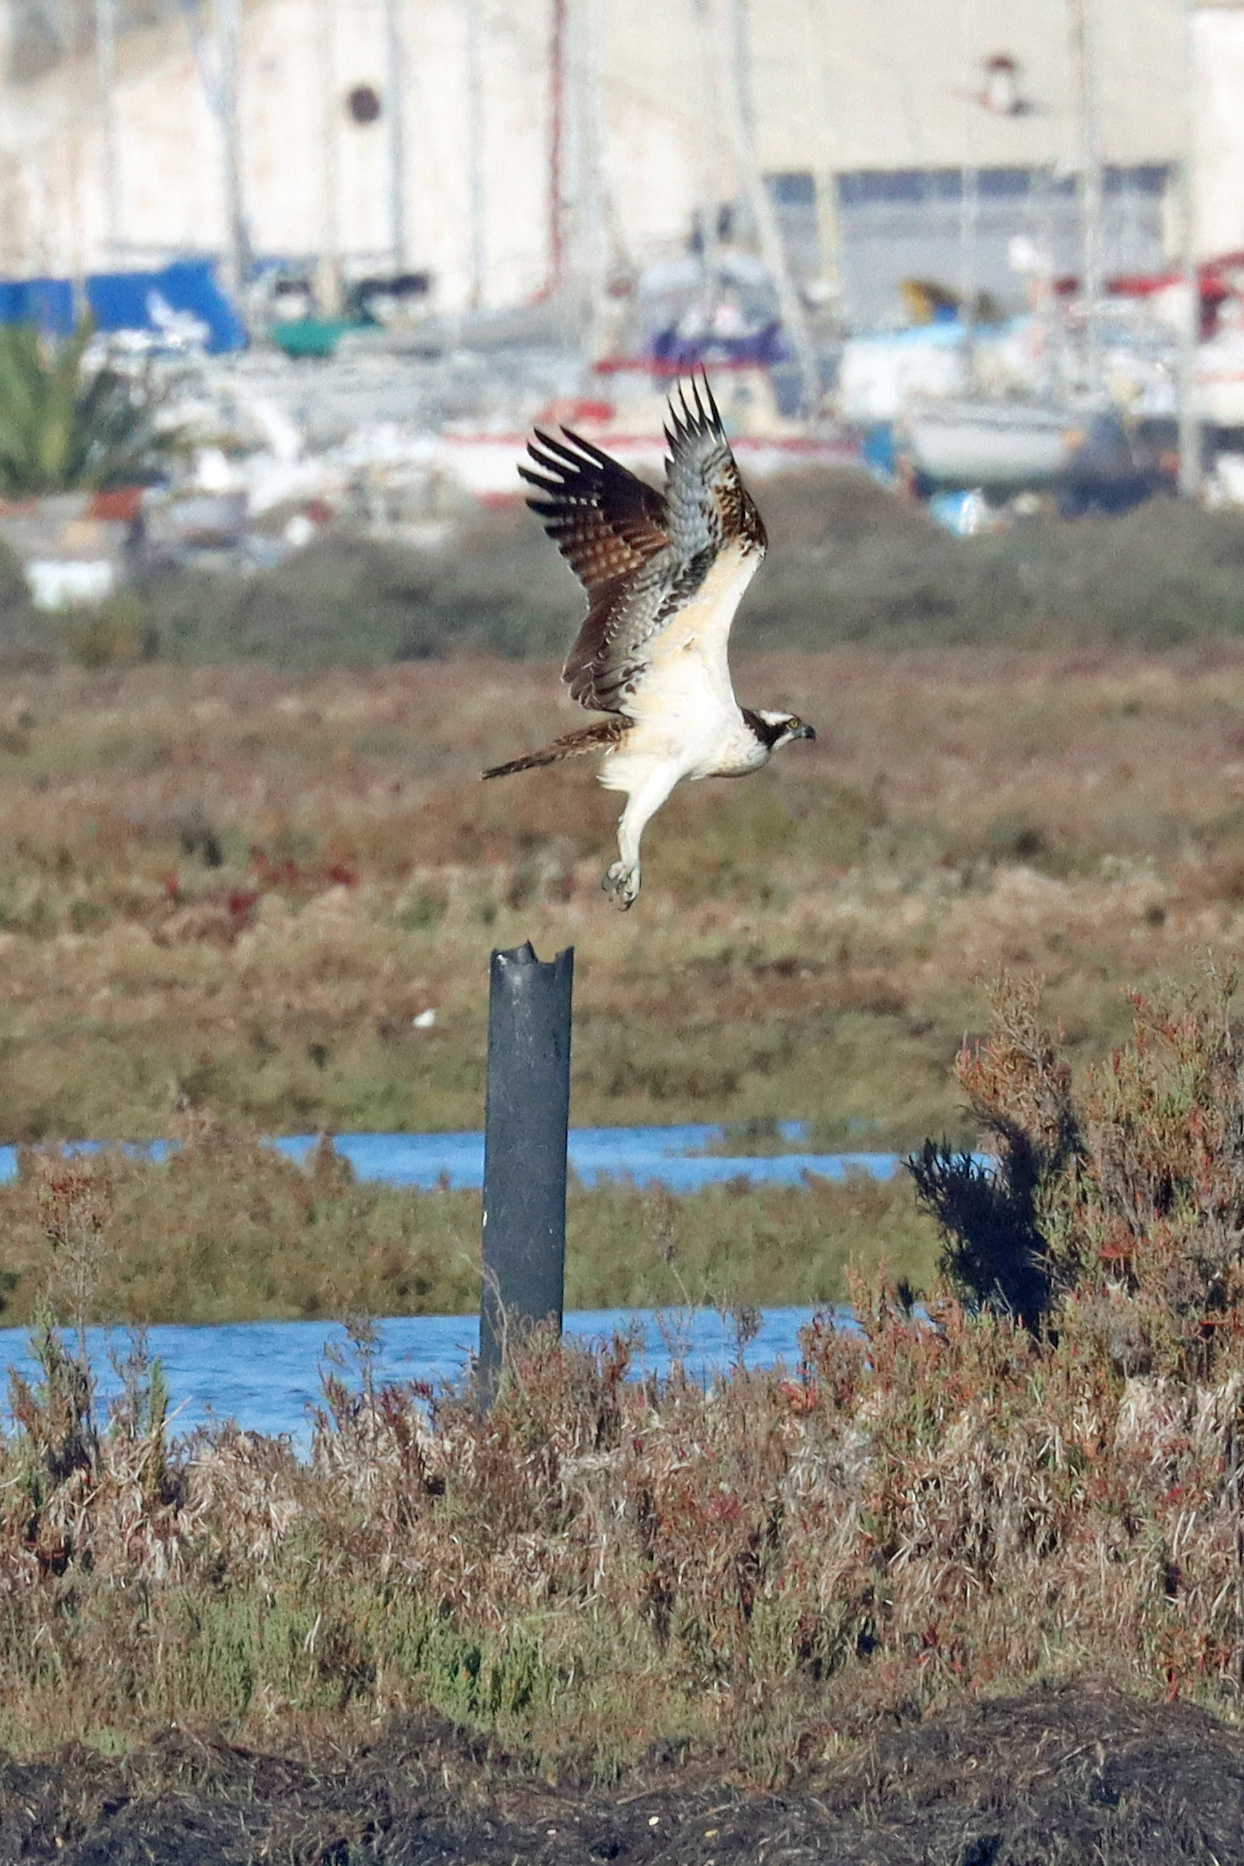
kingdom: Animalia
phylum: Chordata
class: Aves
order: Accipitriformes
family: Pandionidae
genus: Pandion
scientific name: Pandion haliaetus
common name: Osprey
